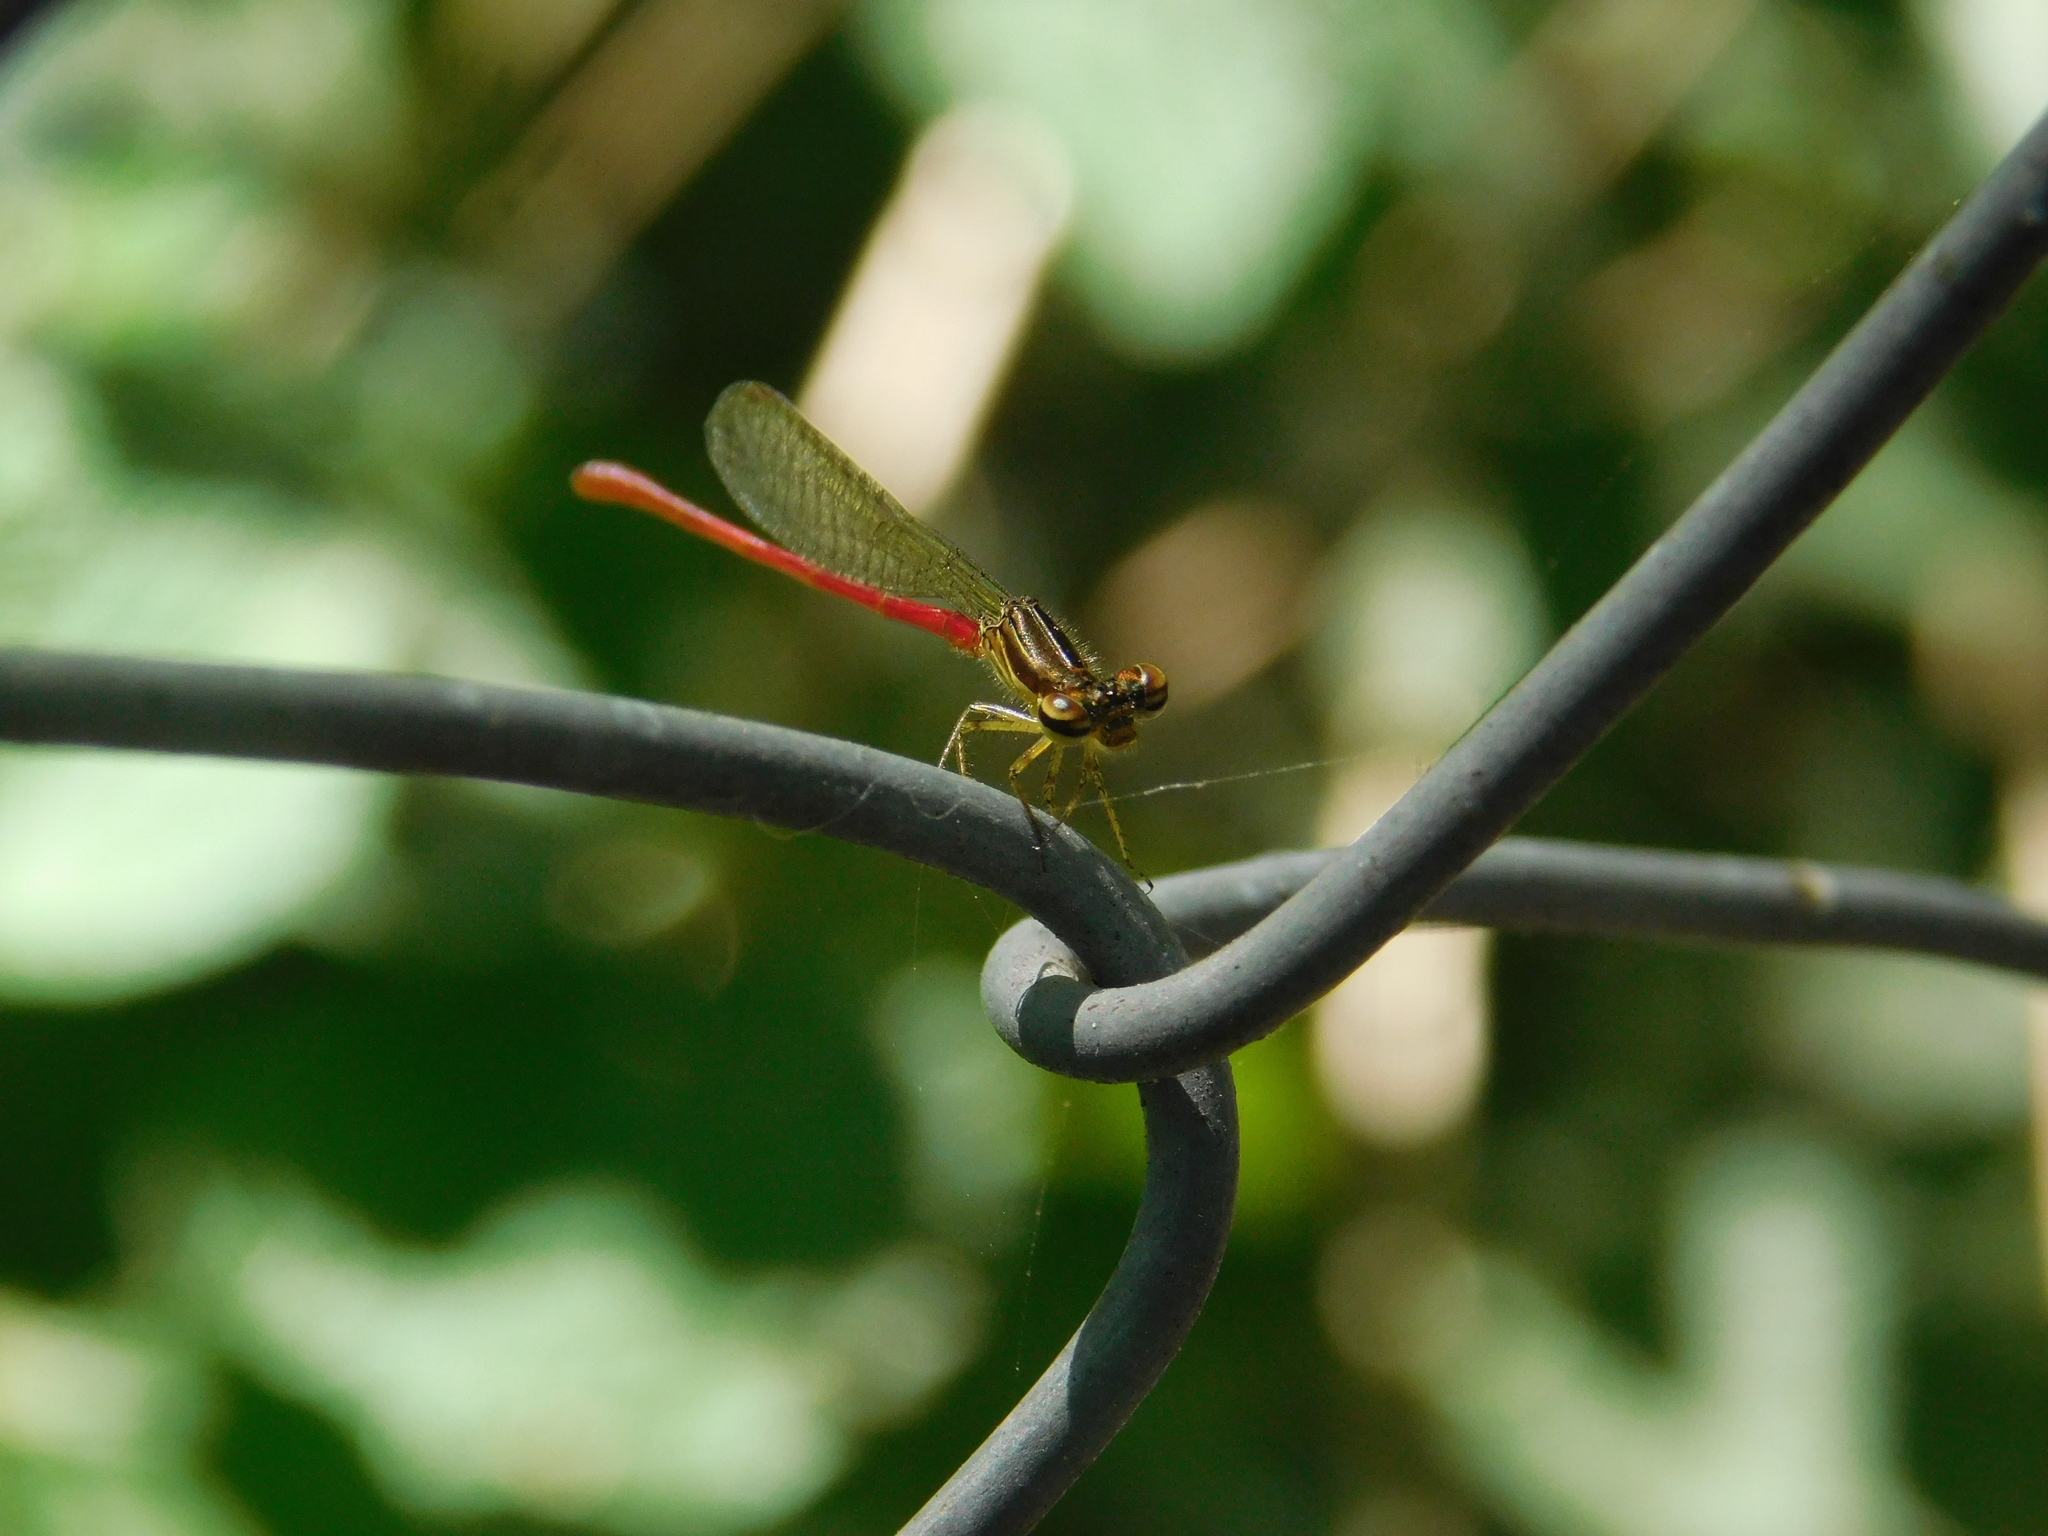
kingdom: Animalia
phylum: Arthropoda
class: Insecta
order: Odonata
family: Coenagrionidae
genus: Telebasis
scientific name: Telebasis willinki
